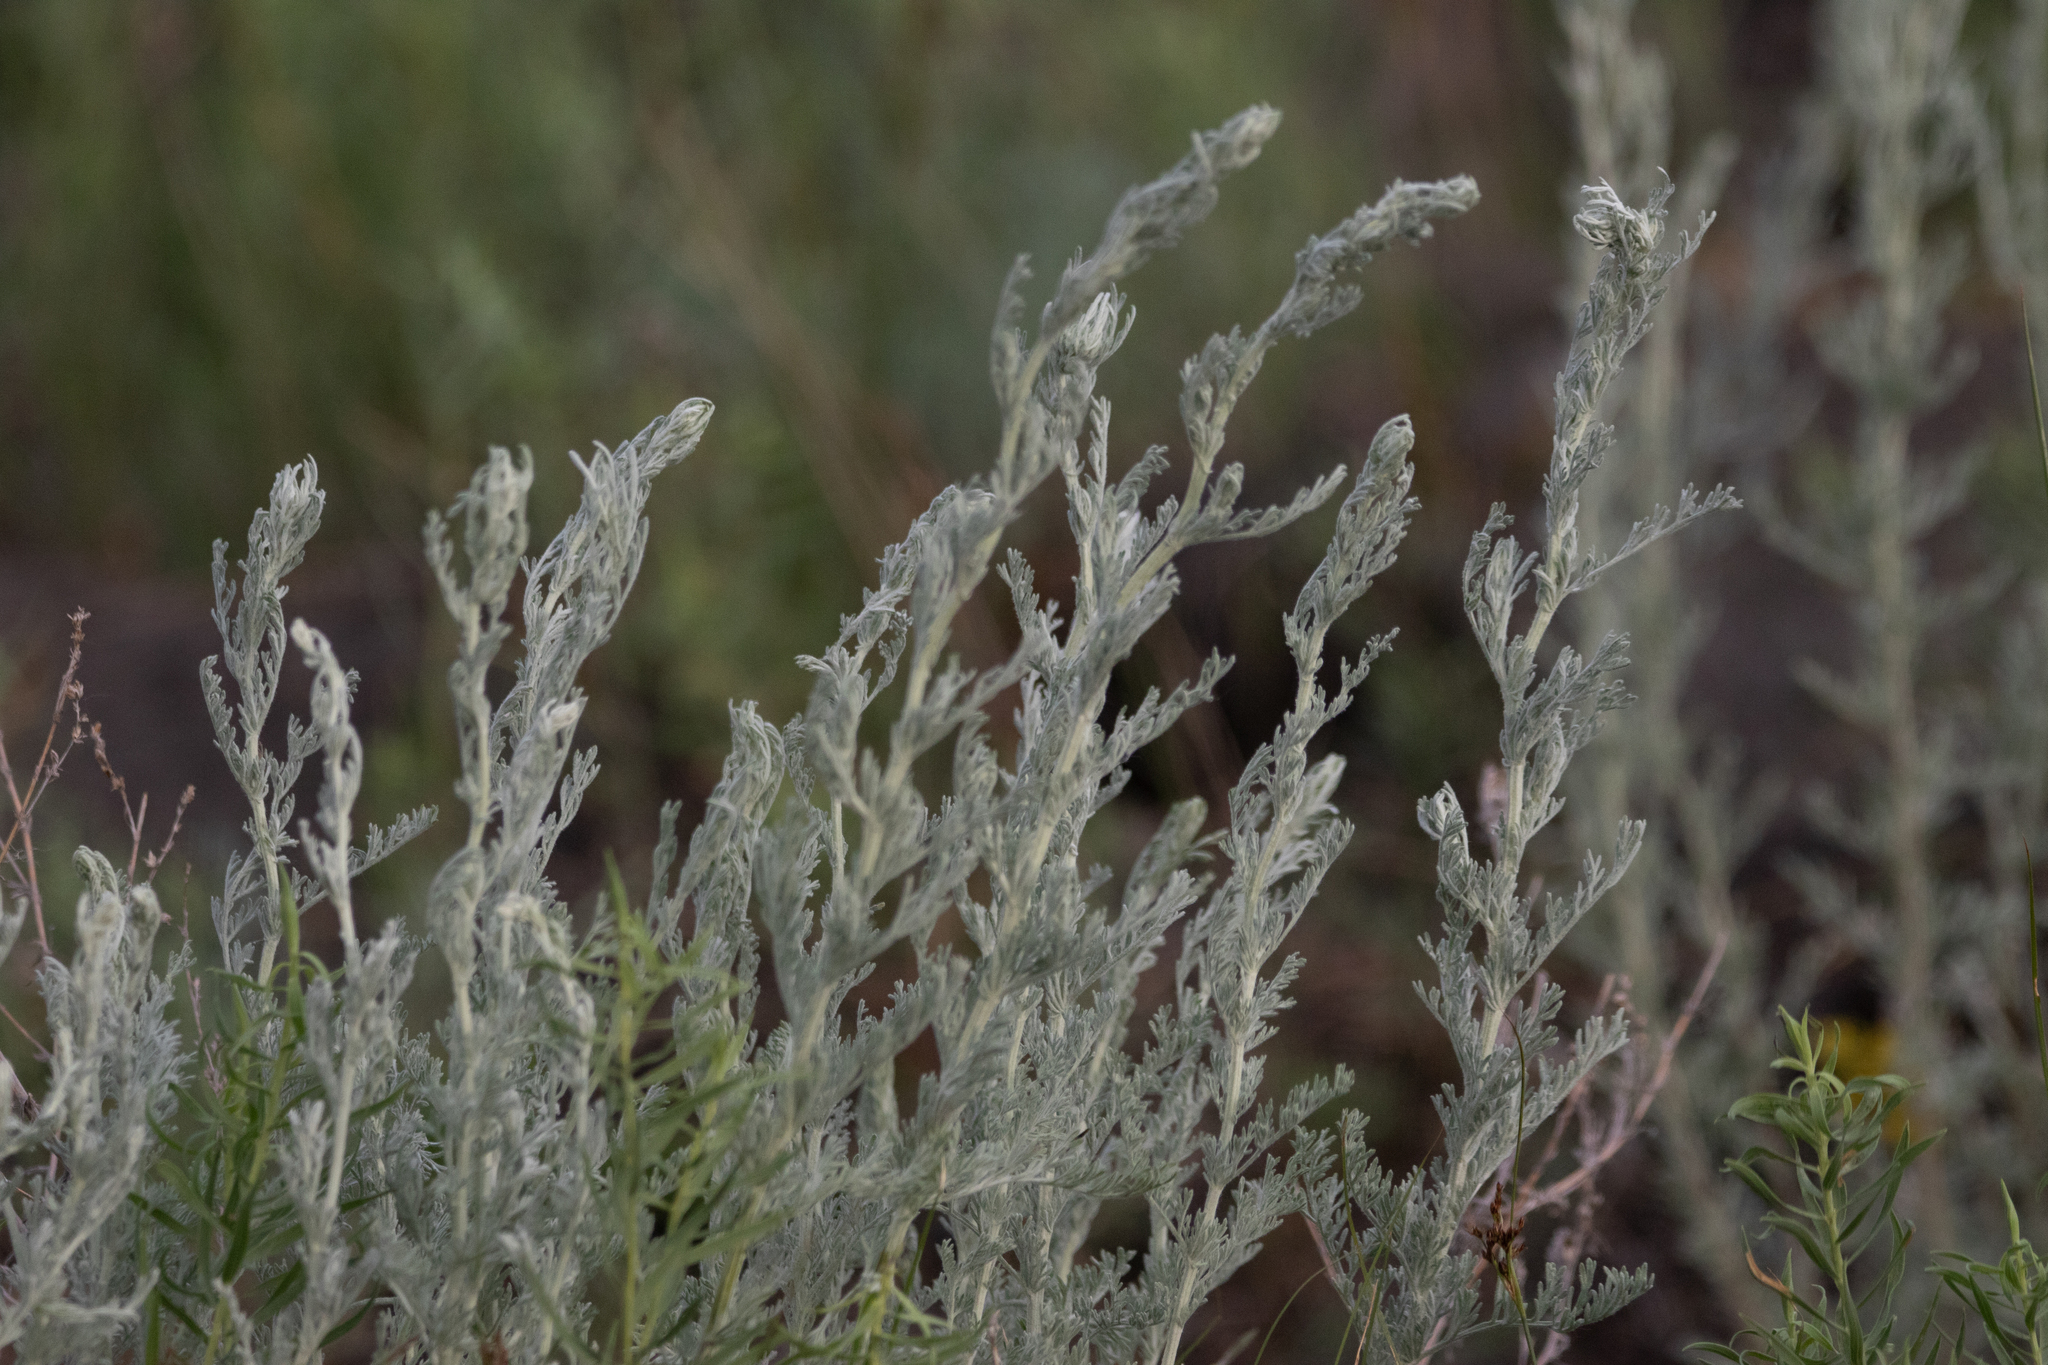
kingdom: Plantae
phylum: Tracheophyta
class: Magnoliopsida
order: Asterales
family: Asteraceae
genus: Artemisia
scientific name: Artemisia nitrosa
